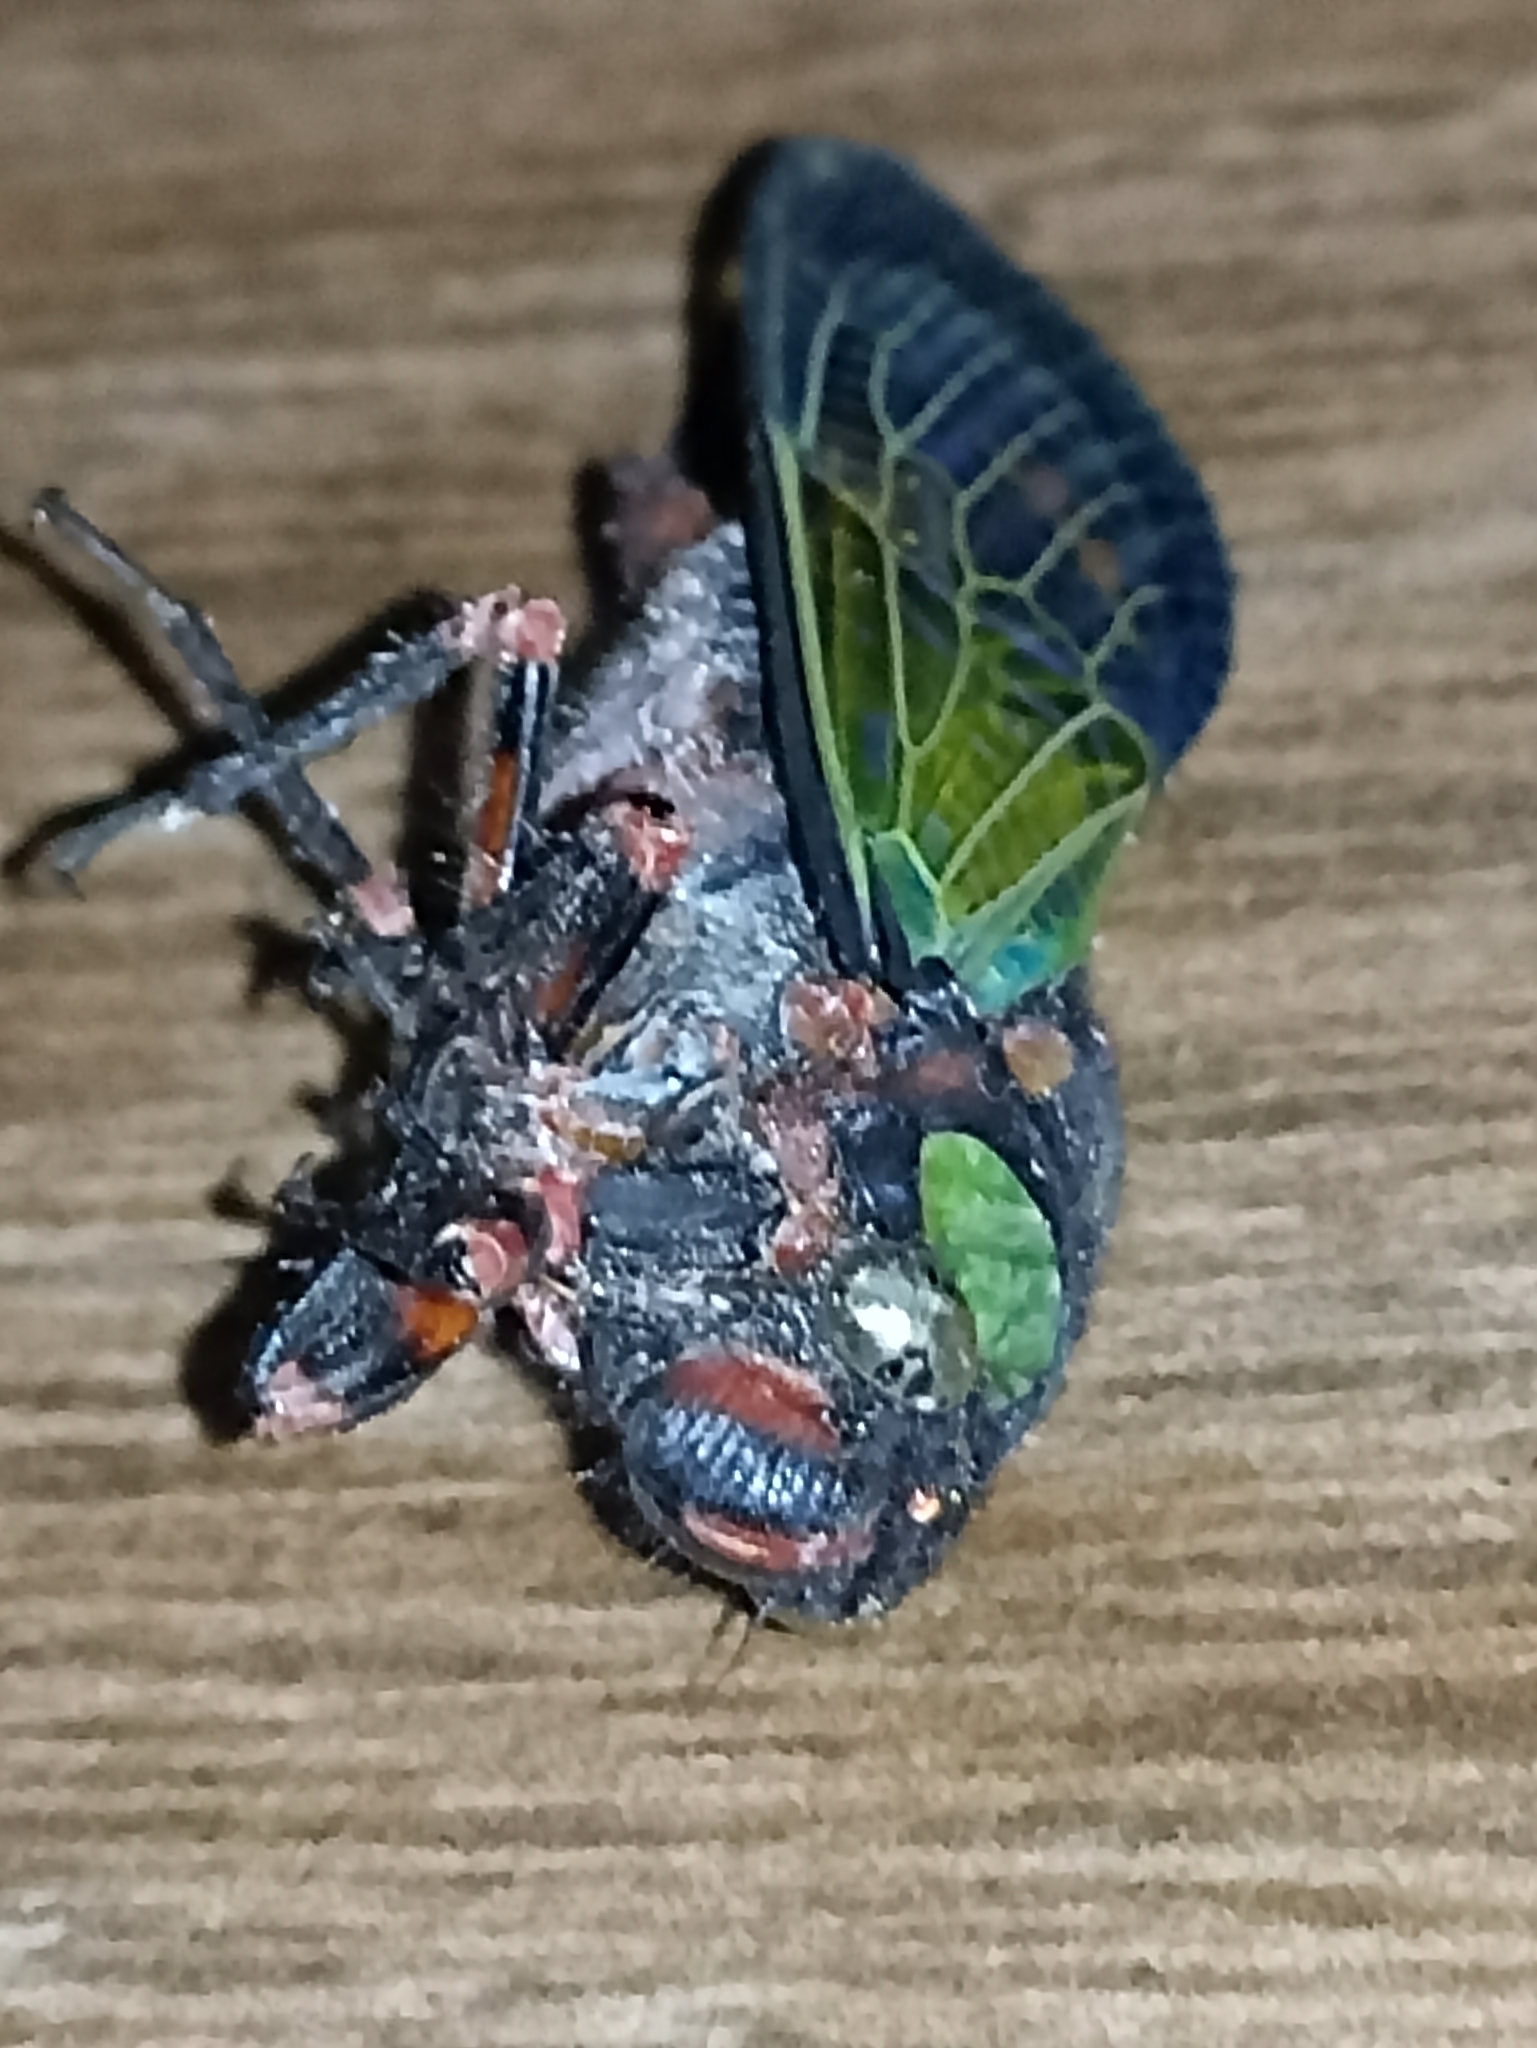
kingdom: Animalia
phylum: Arthropoda
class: Insecta
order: Hemiptera
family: Cicadidae
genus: Carineta
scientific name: Carineta diardi
